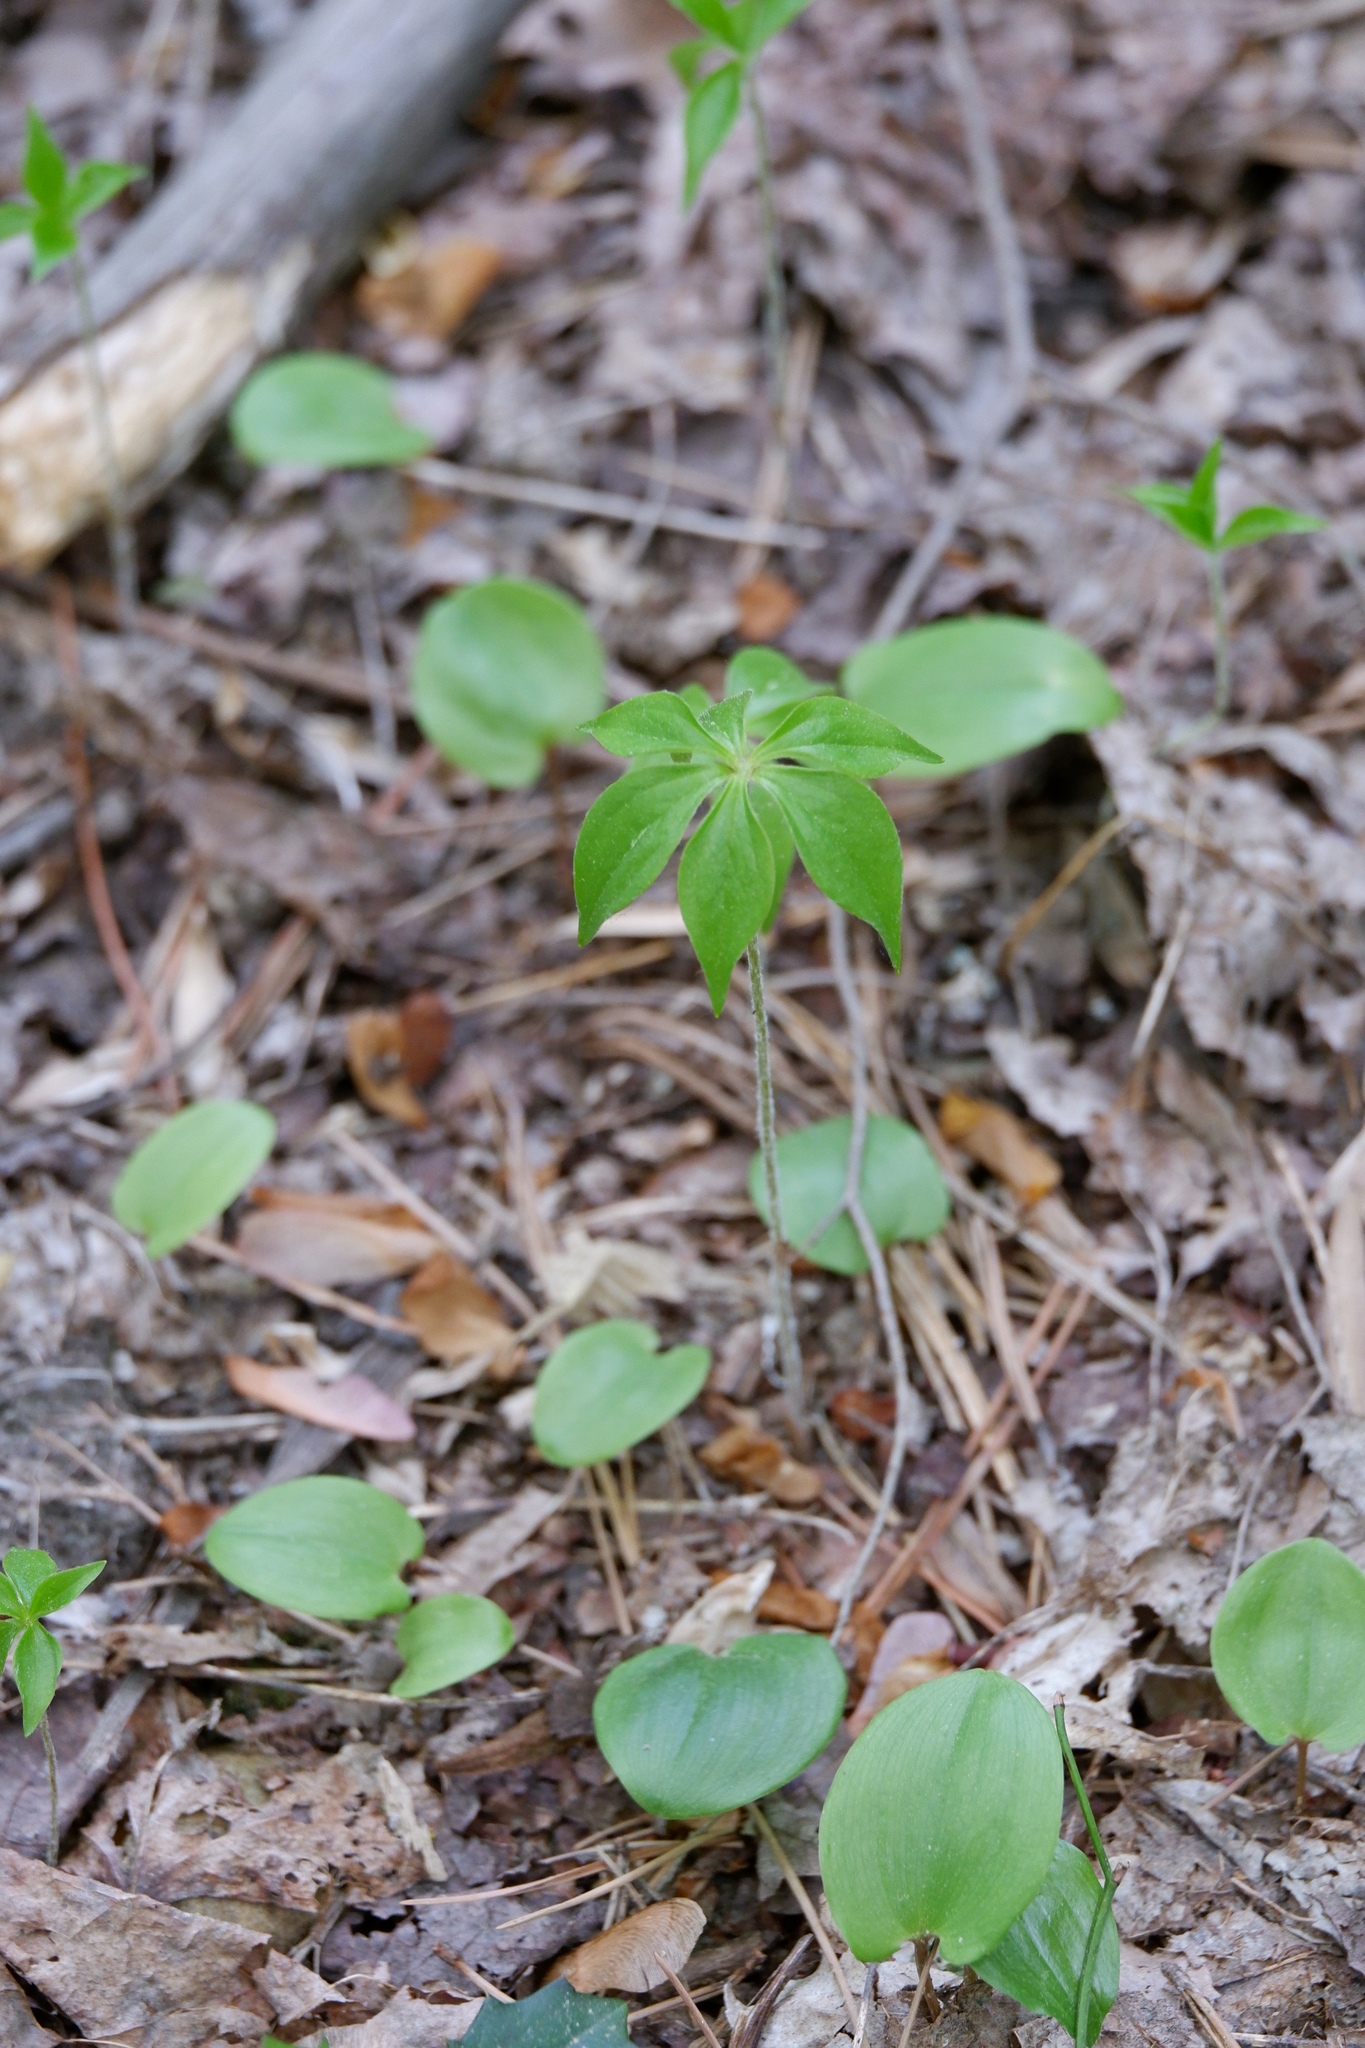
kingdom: Plantae
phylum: Tracheophyta
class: Liliopsida
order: Liliales
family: Liliaceae
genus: Medeola
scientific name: Medeola virginiana
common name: Indian cucumber-root
